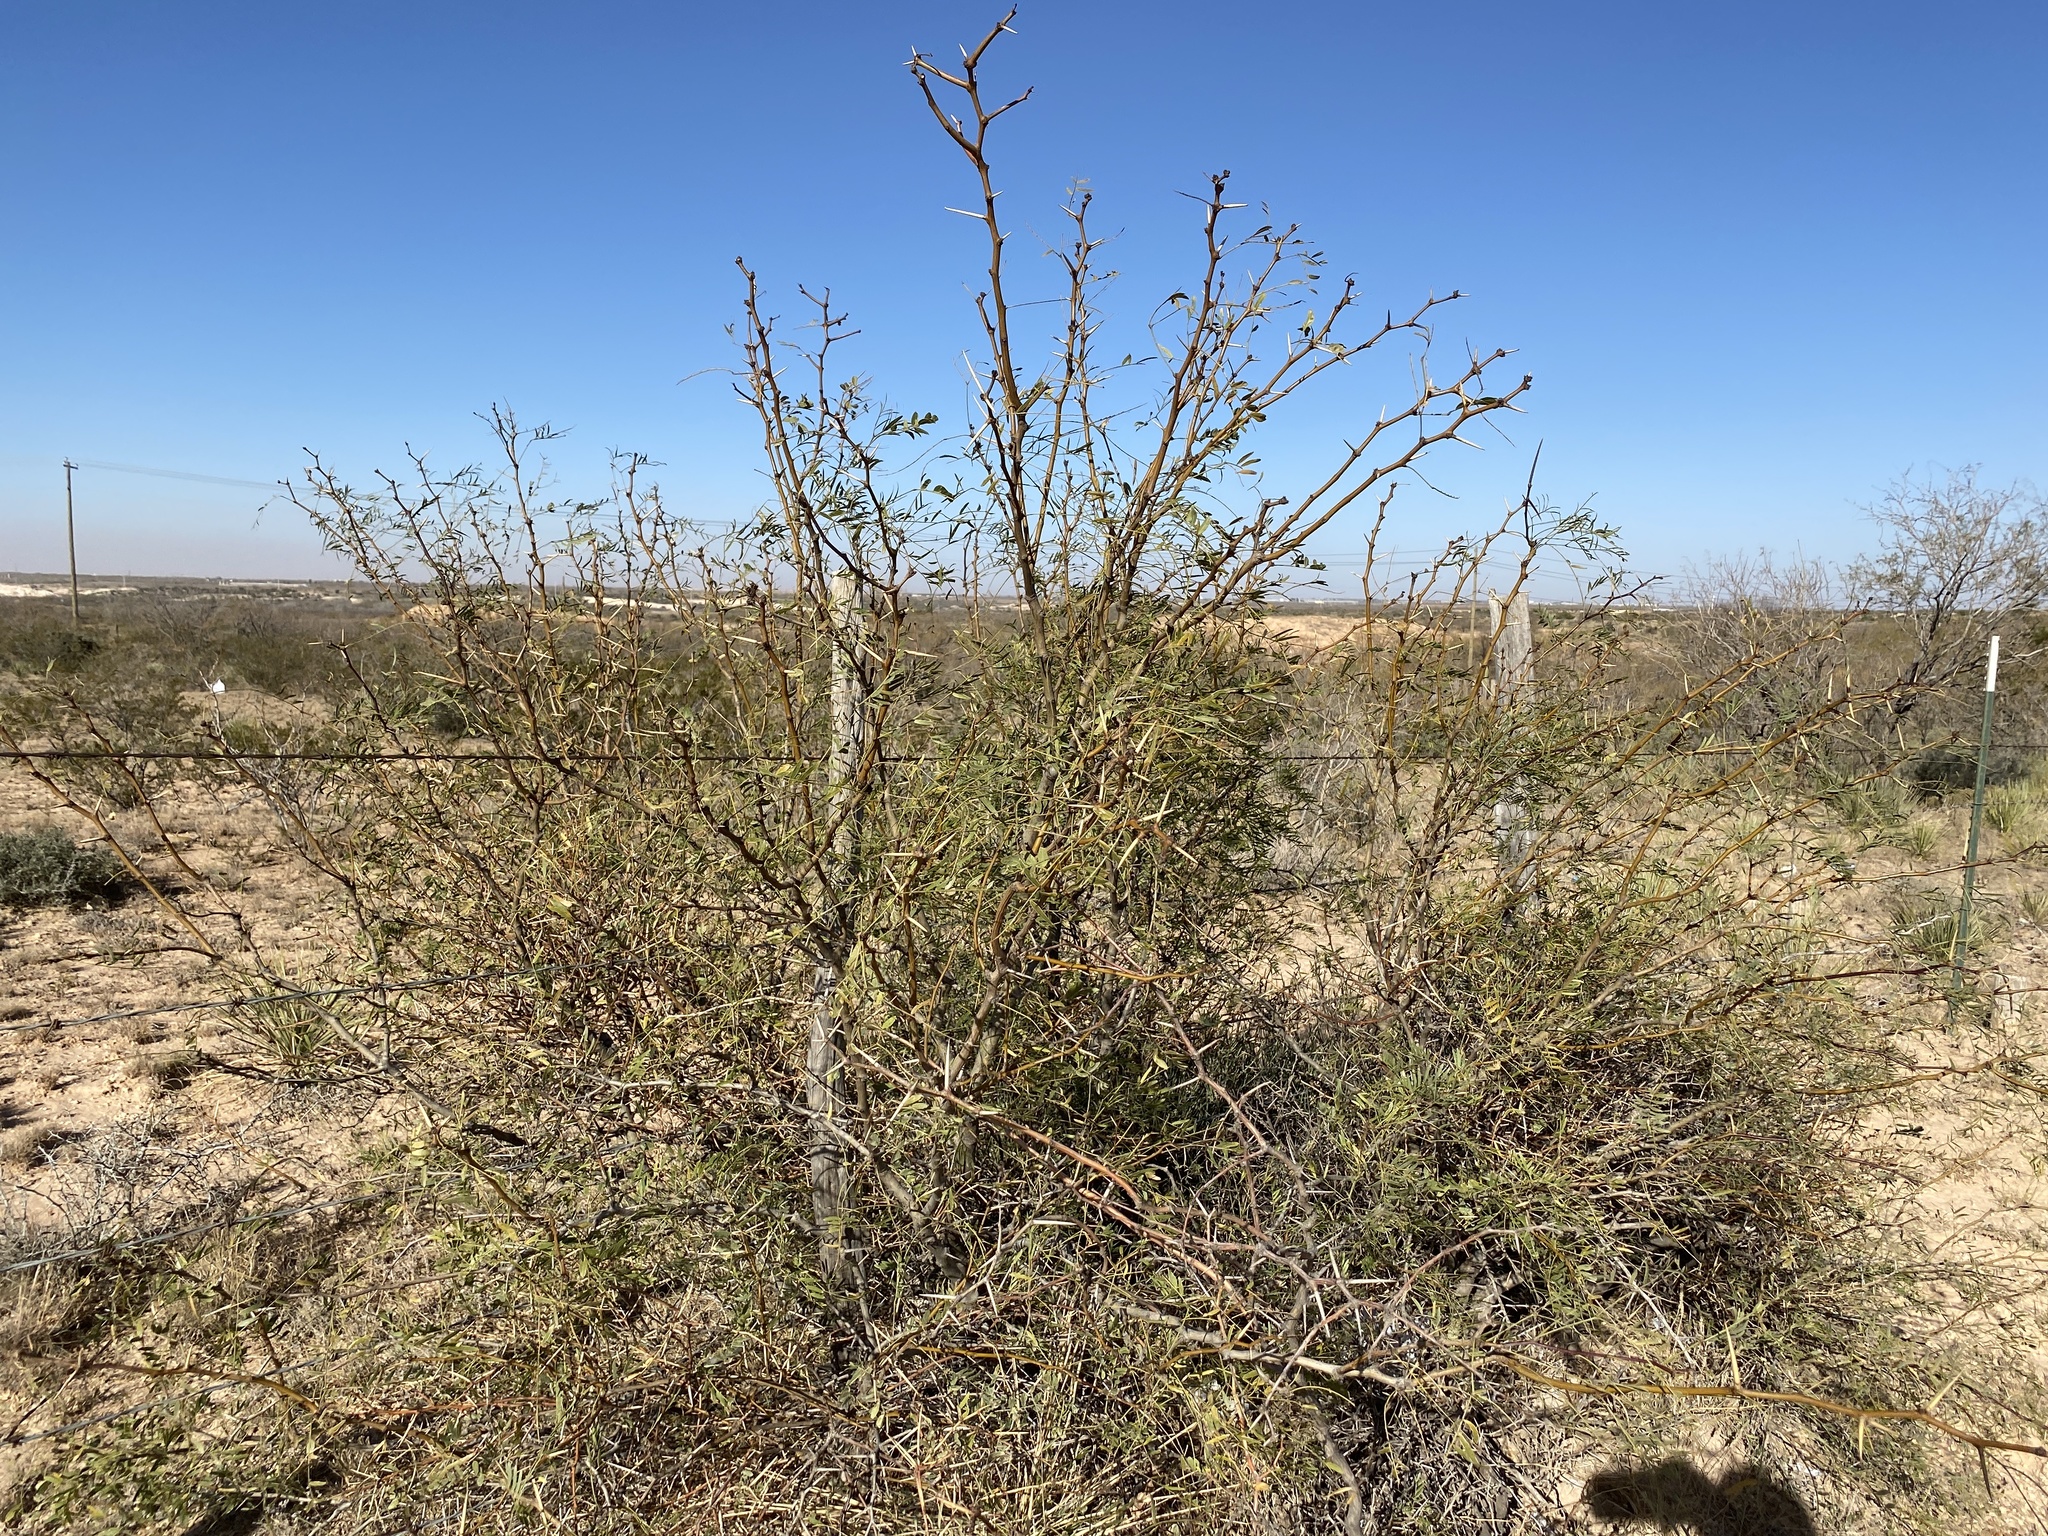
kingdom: Plantae
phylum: Tracheophyta
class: Magnoliopsida
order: Fabales
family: Fabaceae
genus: Prosopis
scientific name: Prosopis glandulosa
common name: Honey mesquite
